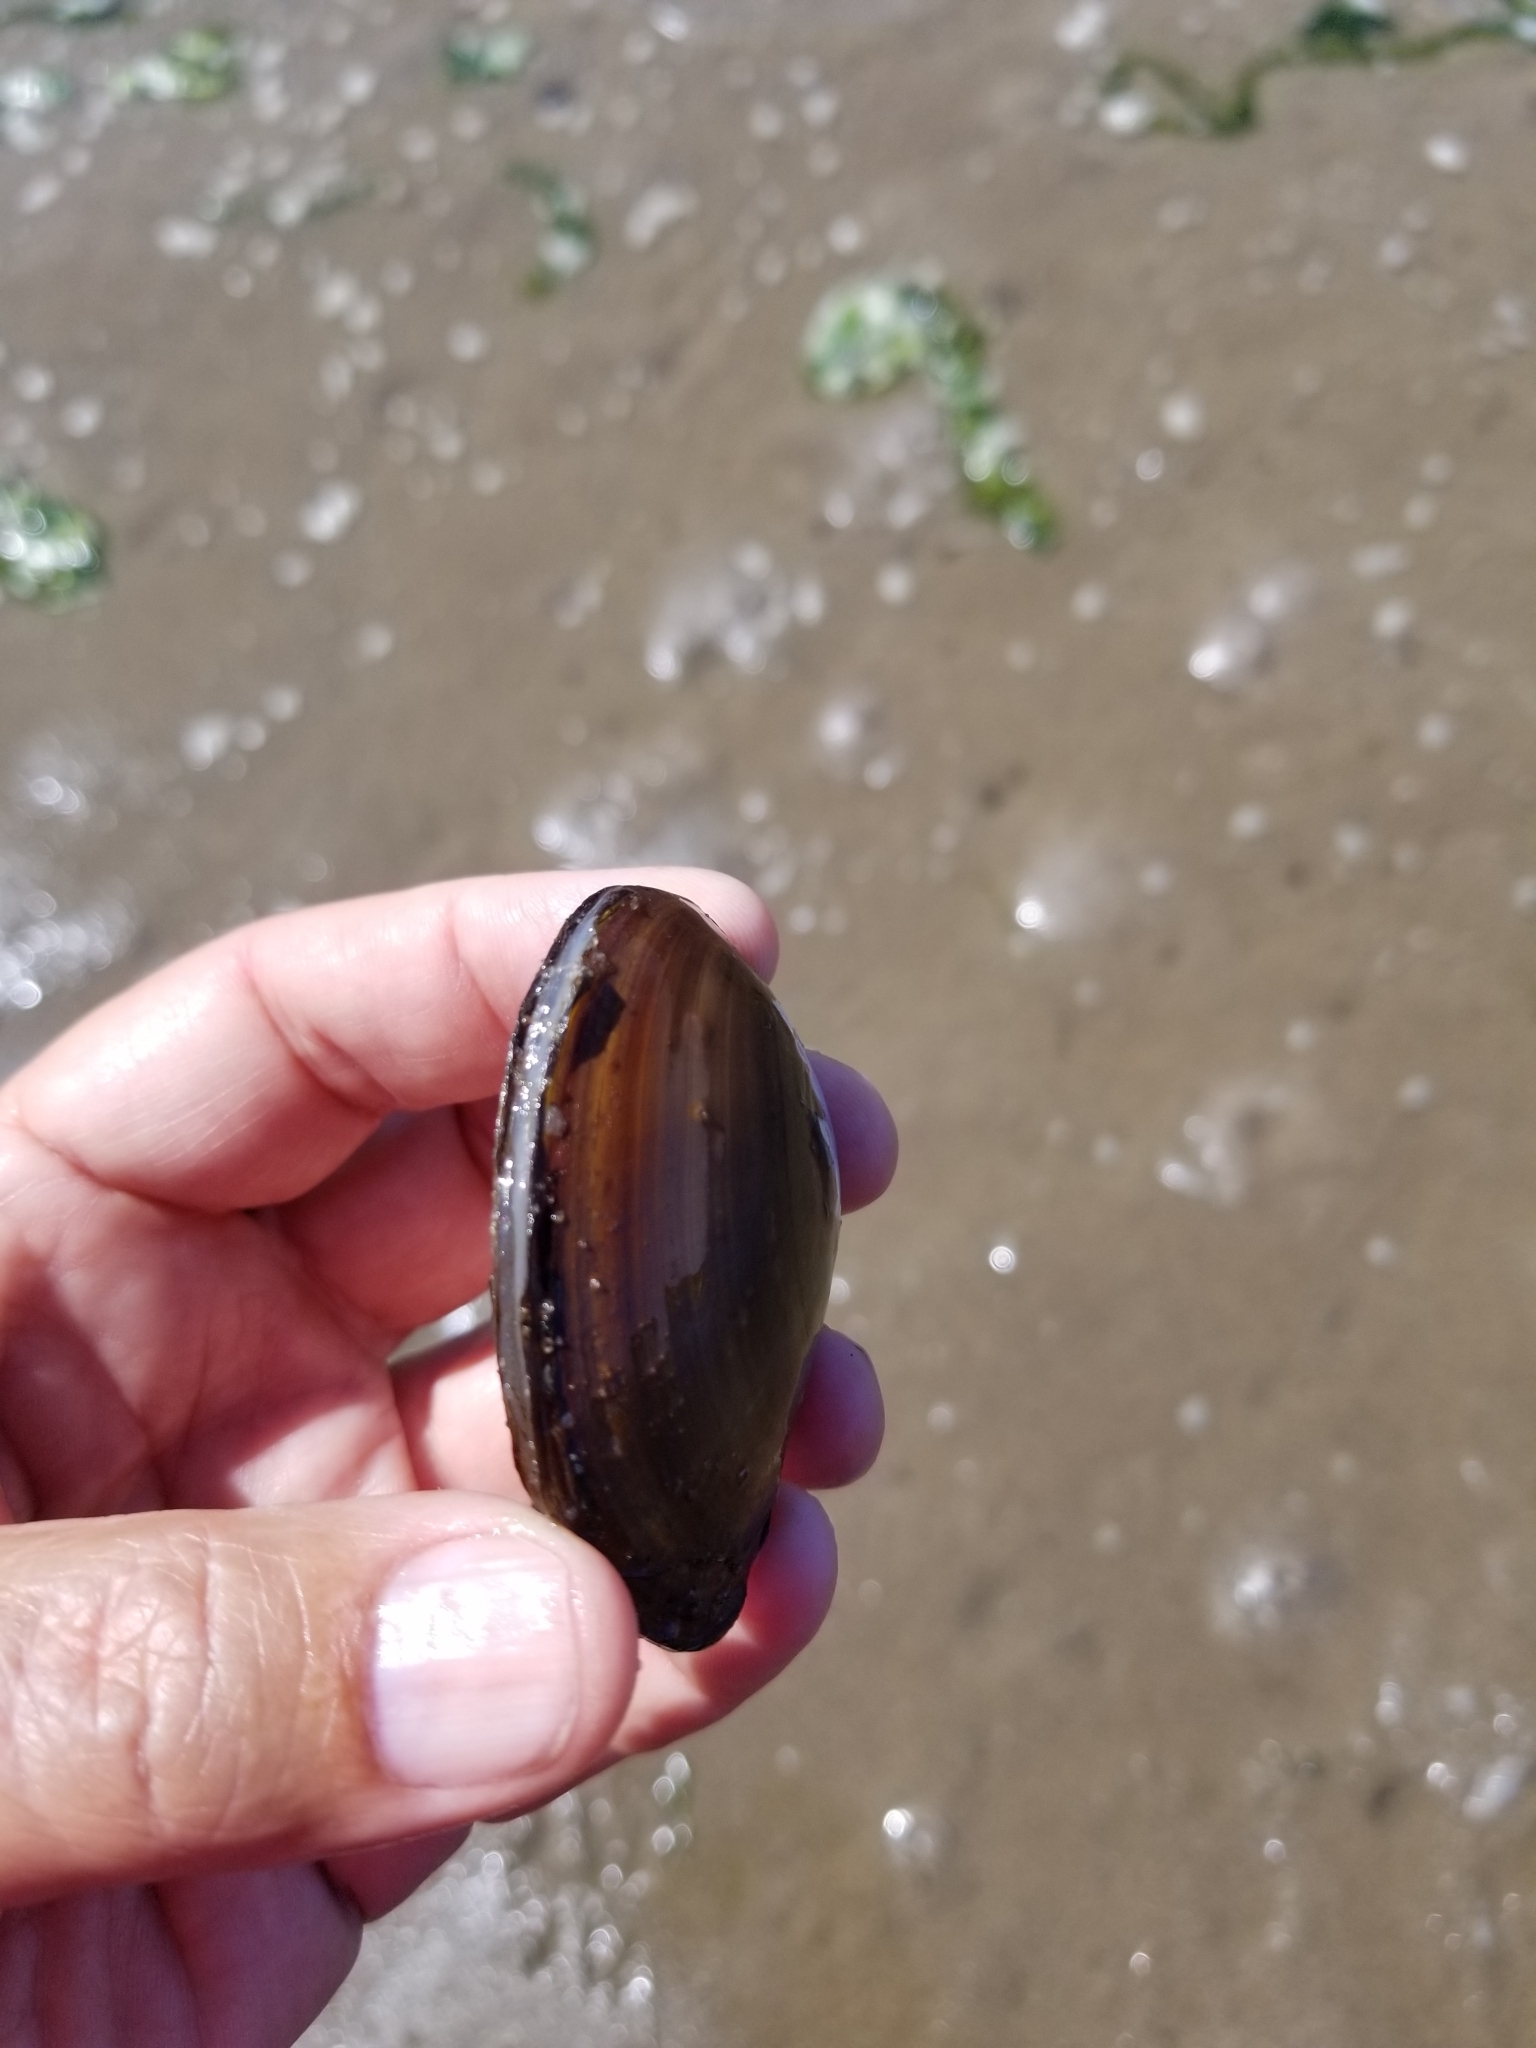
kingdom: Animalia
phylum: Mollusca
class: Bivalvia
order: Cardiida
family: Psammobiidae
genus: Nuttallia
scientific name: Nuttallia obscurata
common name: Purple mahogany-clam
